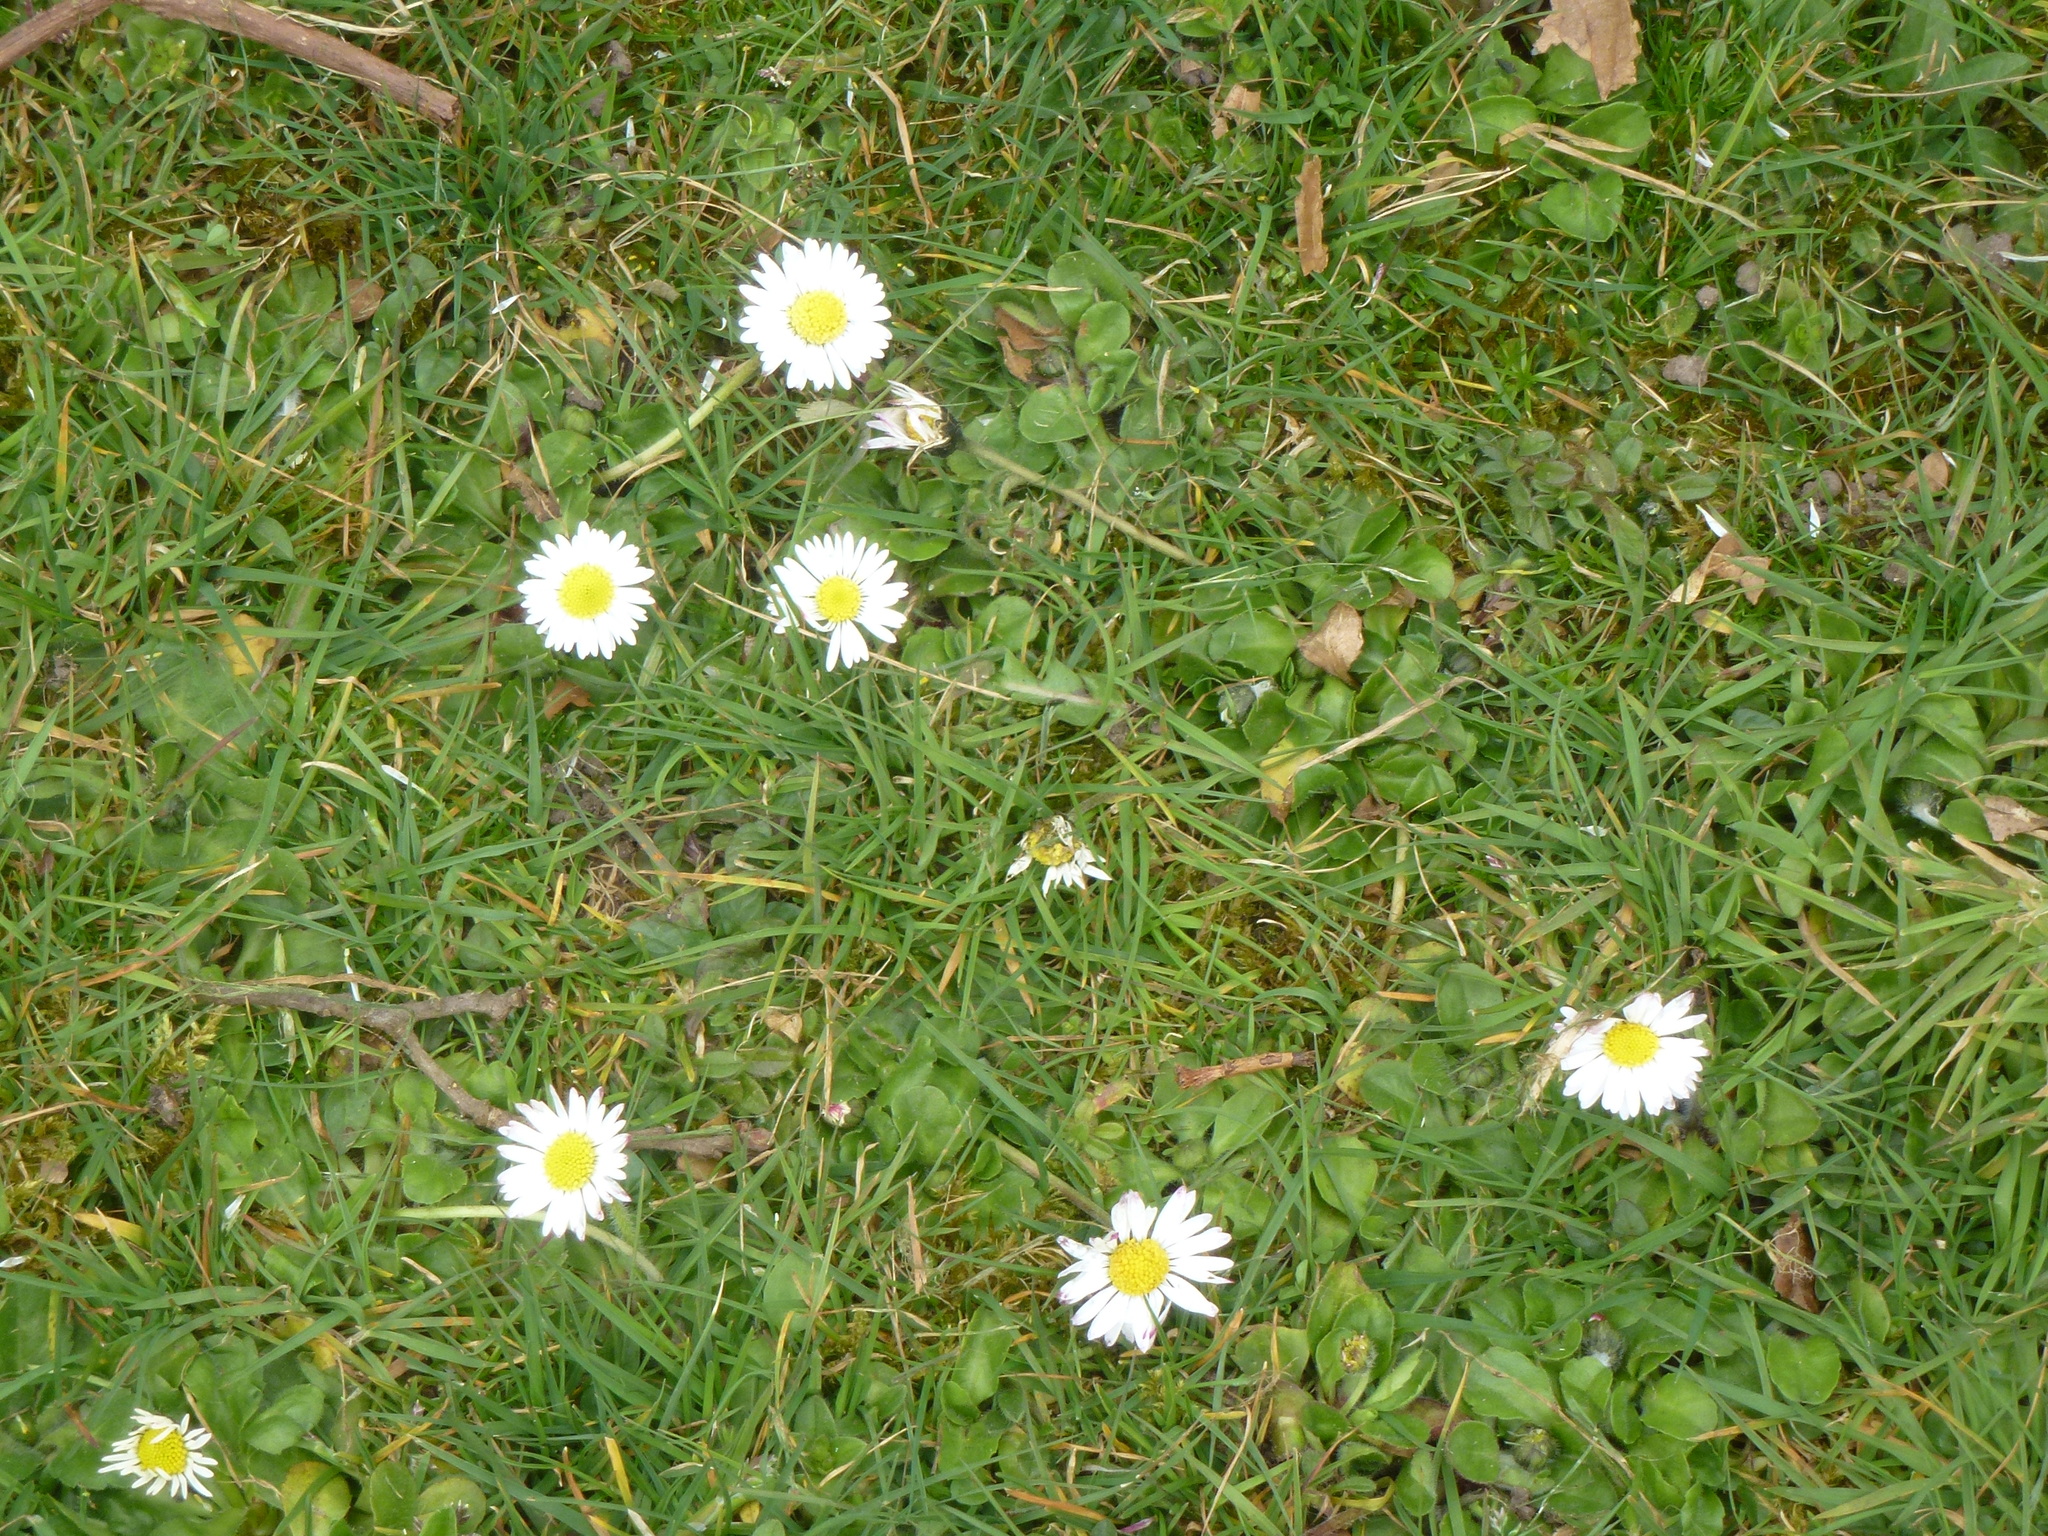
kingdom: Plantae
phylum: Tracheophyta
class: Magnoliopsida
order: Asterales
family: Asteraceae
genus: Bellis
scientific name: Bellis perennis
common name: Lawndaisy
